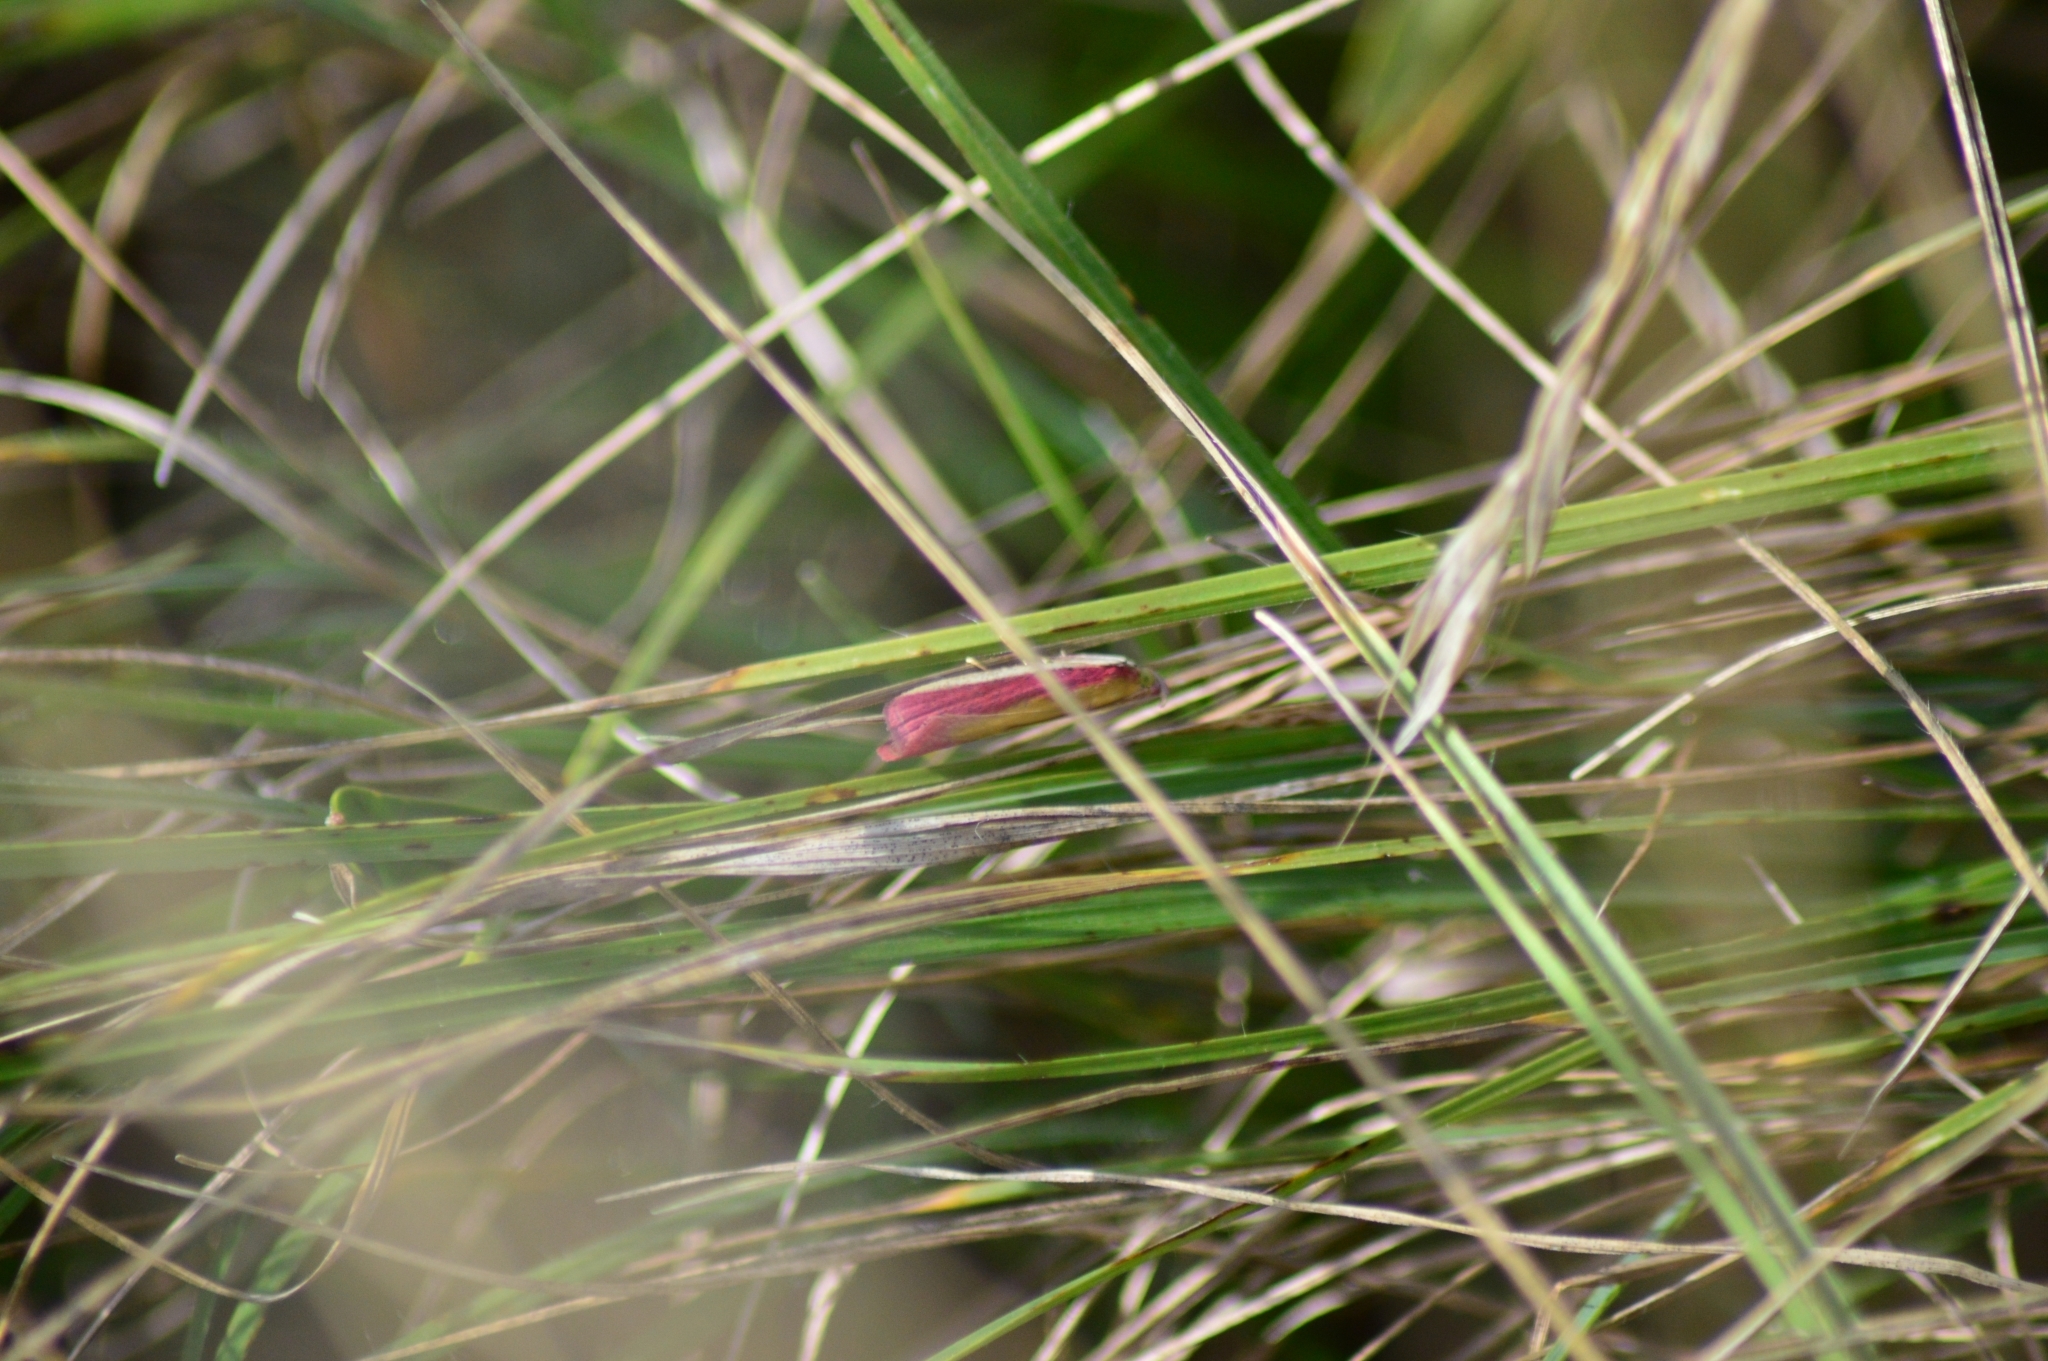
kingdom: Animalia
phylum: Arthropoda
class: Insecta
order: Lepidoptera
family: Pyralidae
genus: Oncocera
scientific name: Oncocera semirubella
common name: Rosy-striped knot-horn
